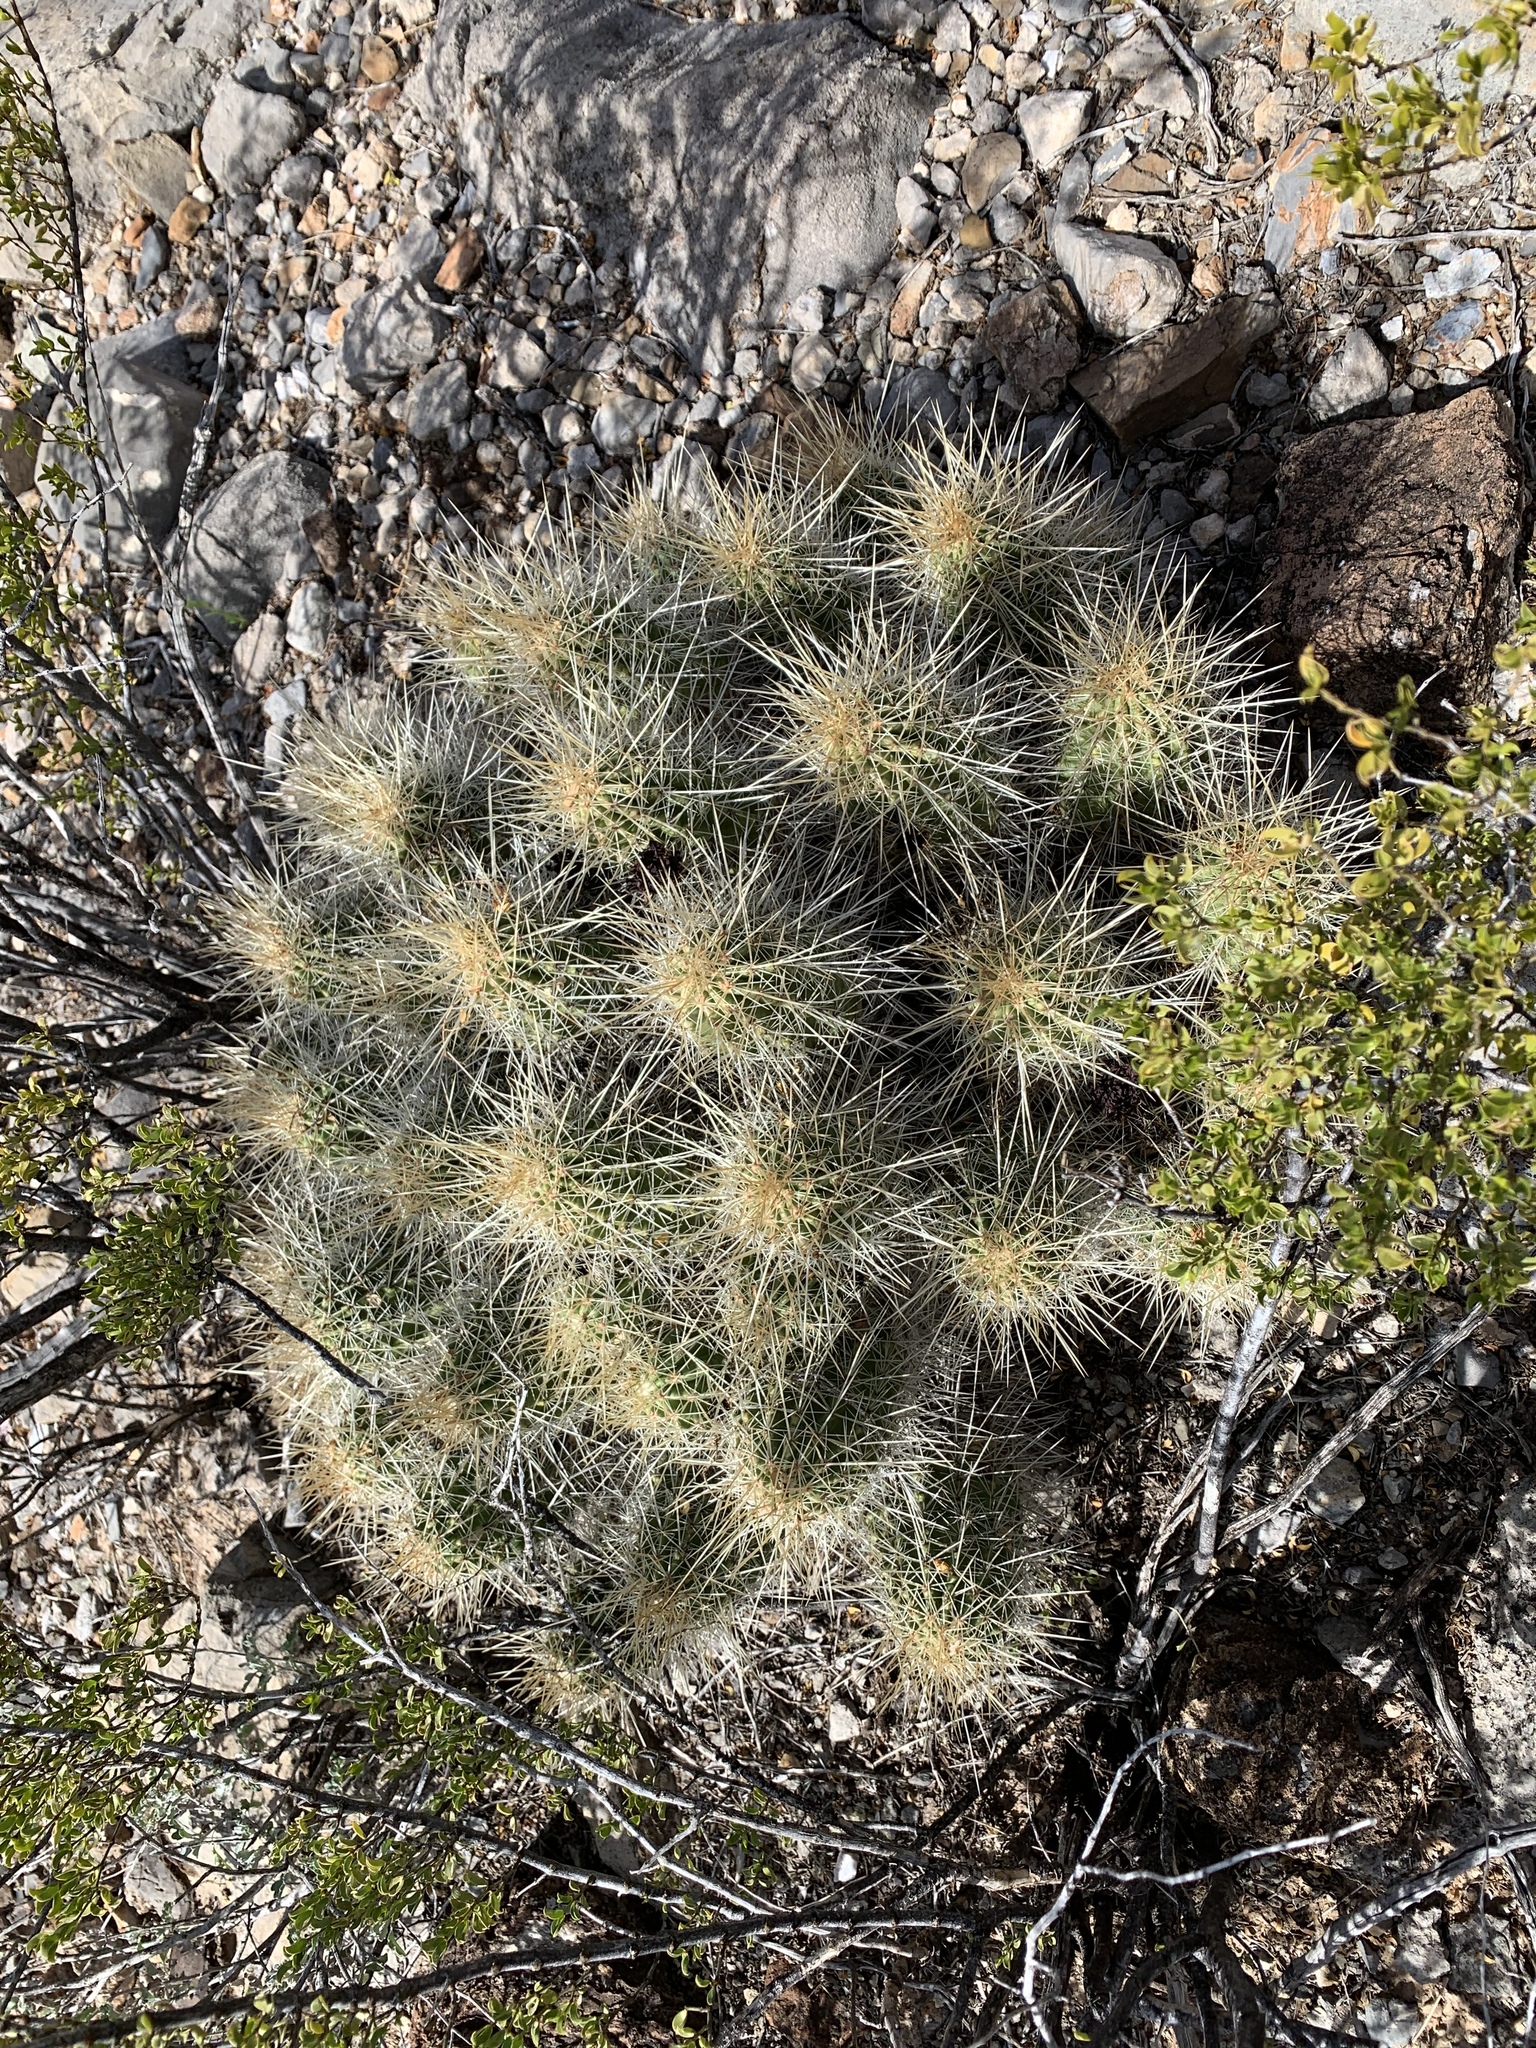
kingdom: Plantae
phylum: Tracheophyta
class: Magnoliopsida
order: Caryophyllales
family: Cactaceae
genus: Echinocereus
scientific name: Echinocereus stramineus
